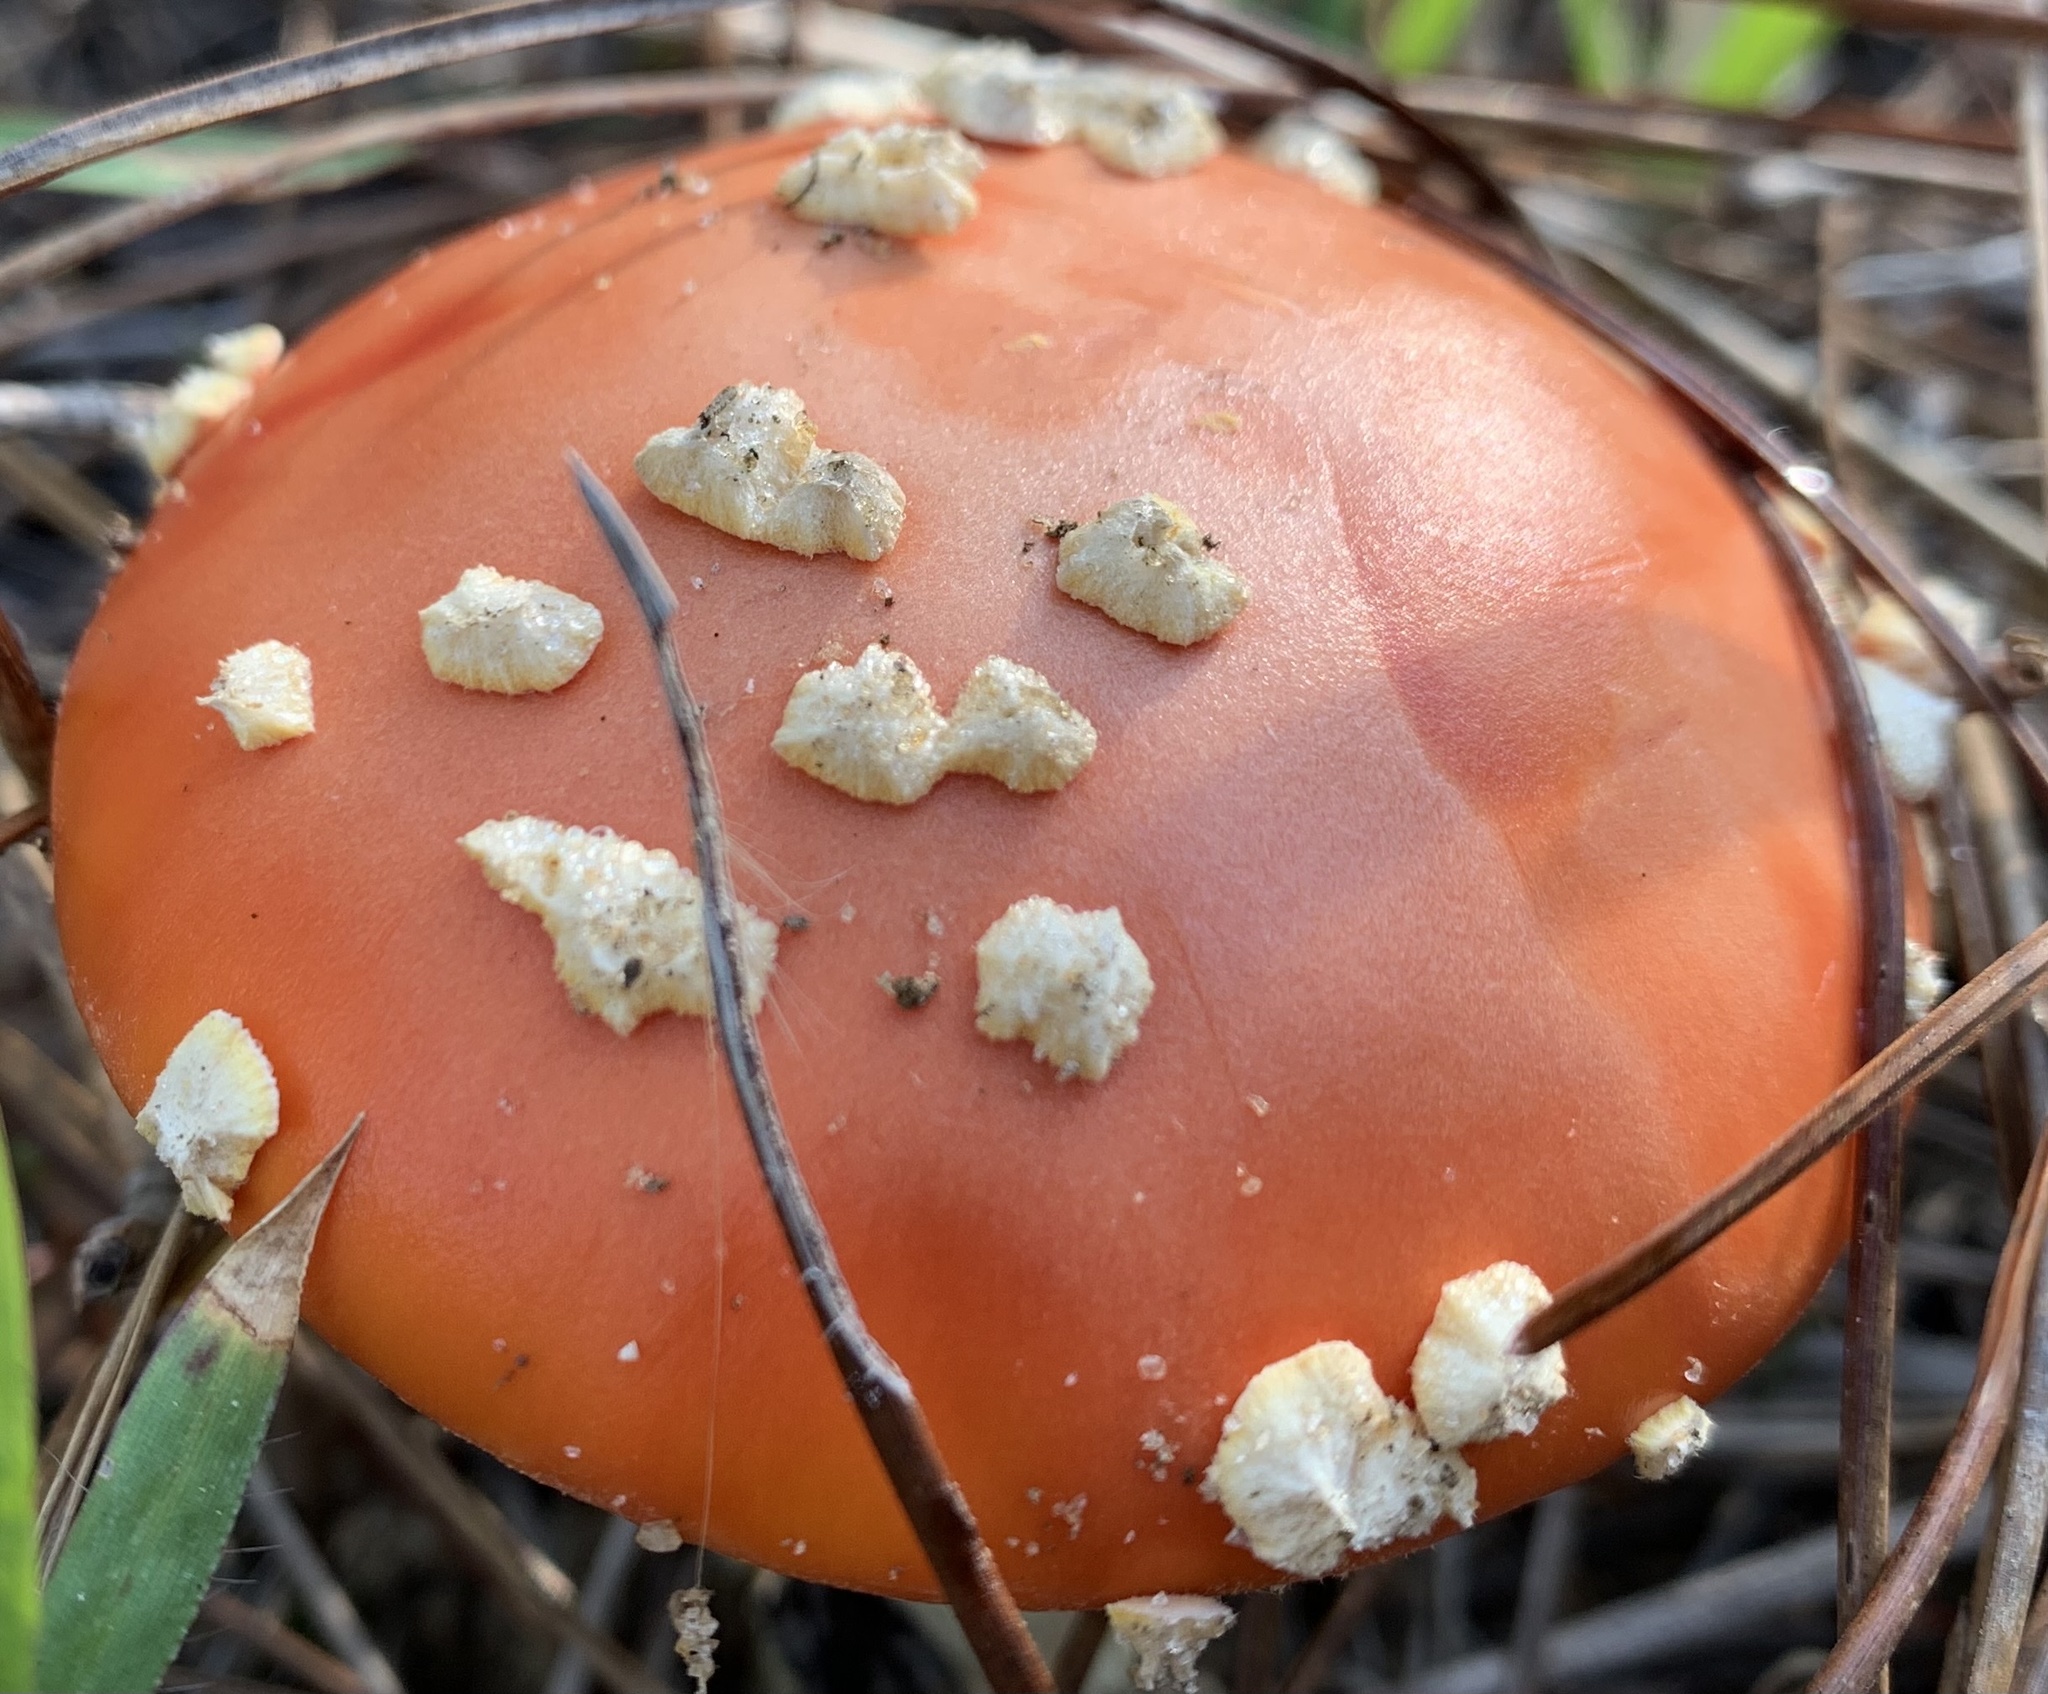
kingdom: Fungi
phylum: Basidiomycota
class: Agaricomycetes
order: Agaricales
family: Amanitaceae
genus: Amanita
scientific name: Amanita persicina
